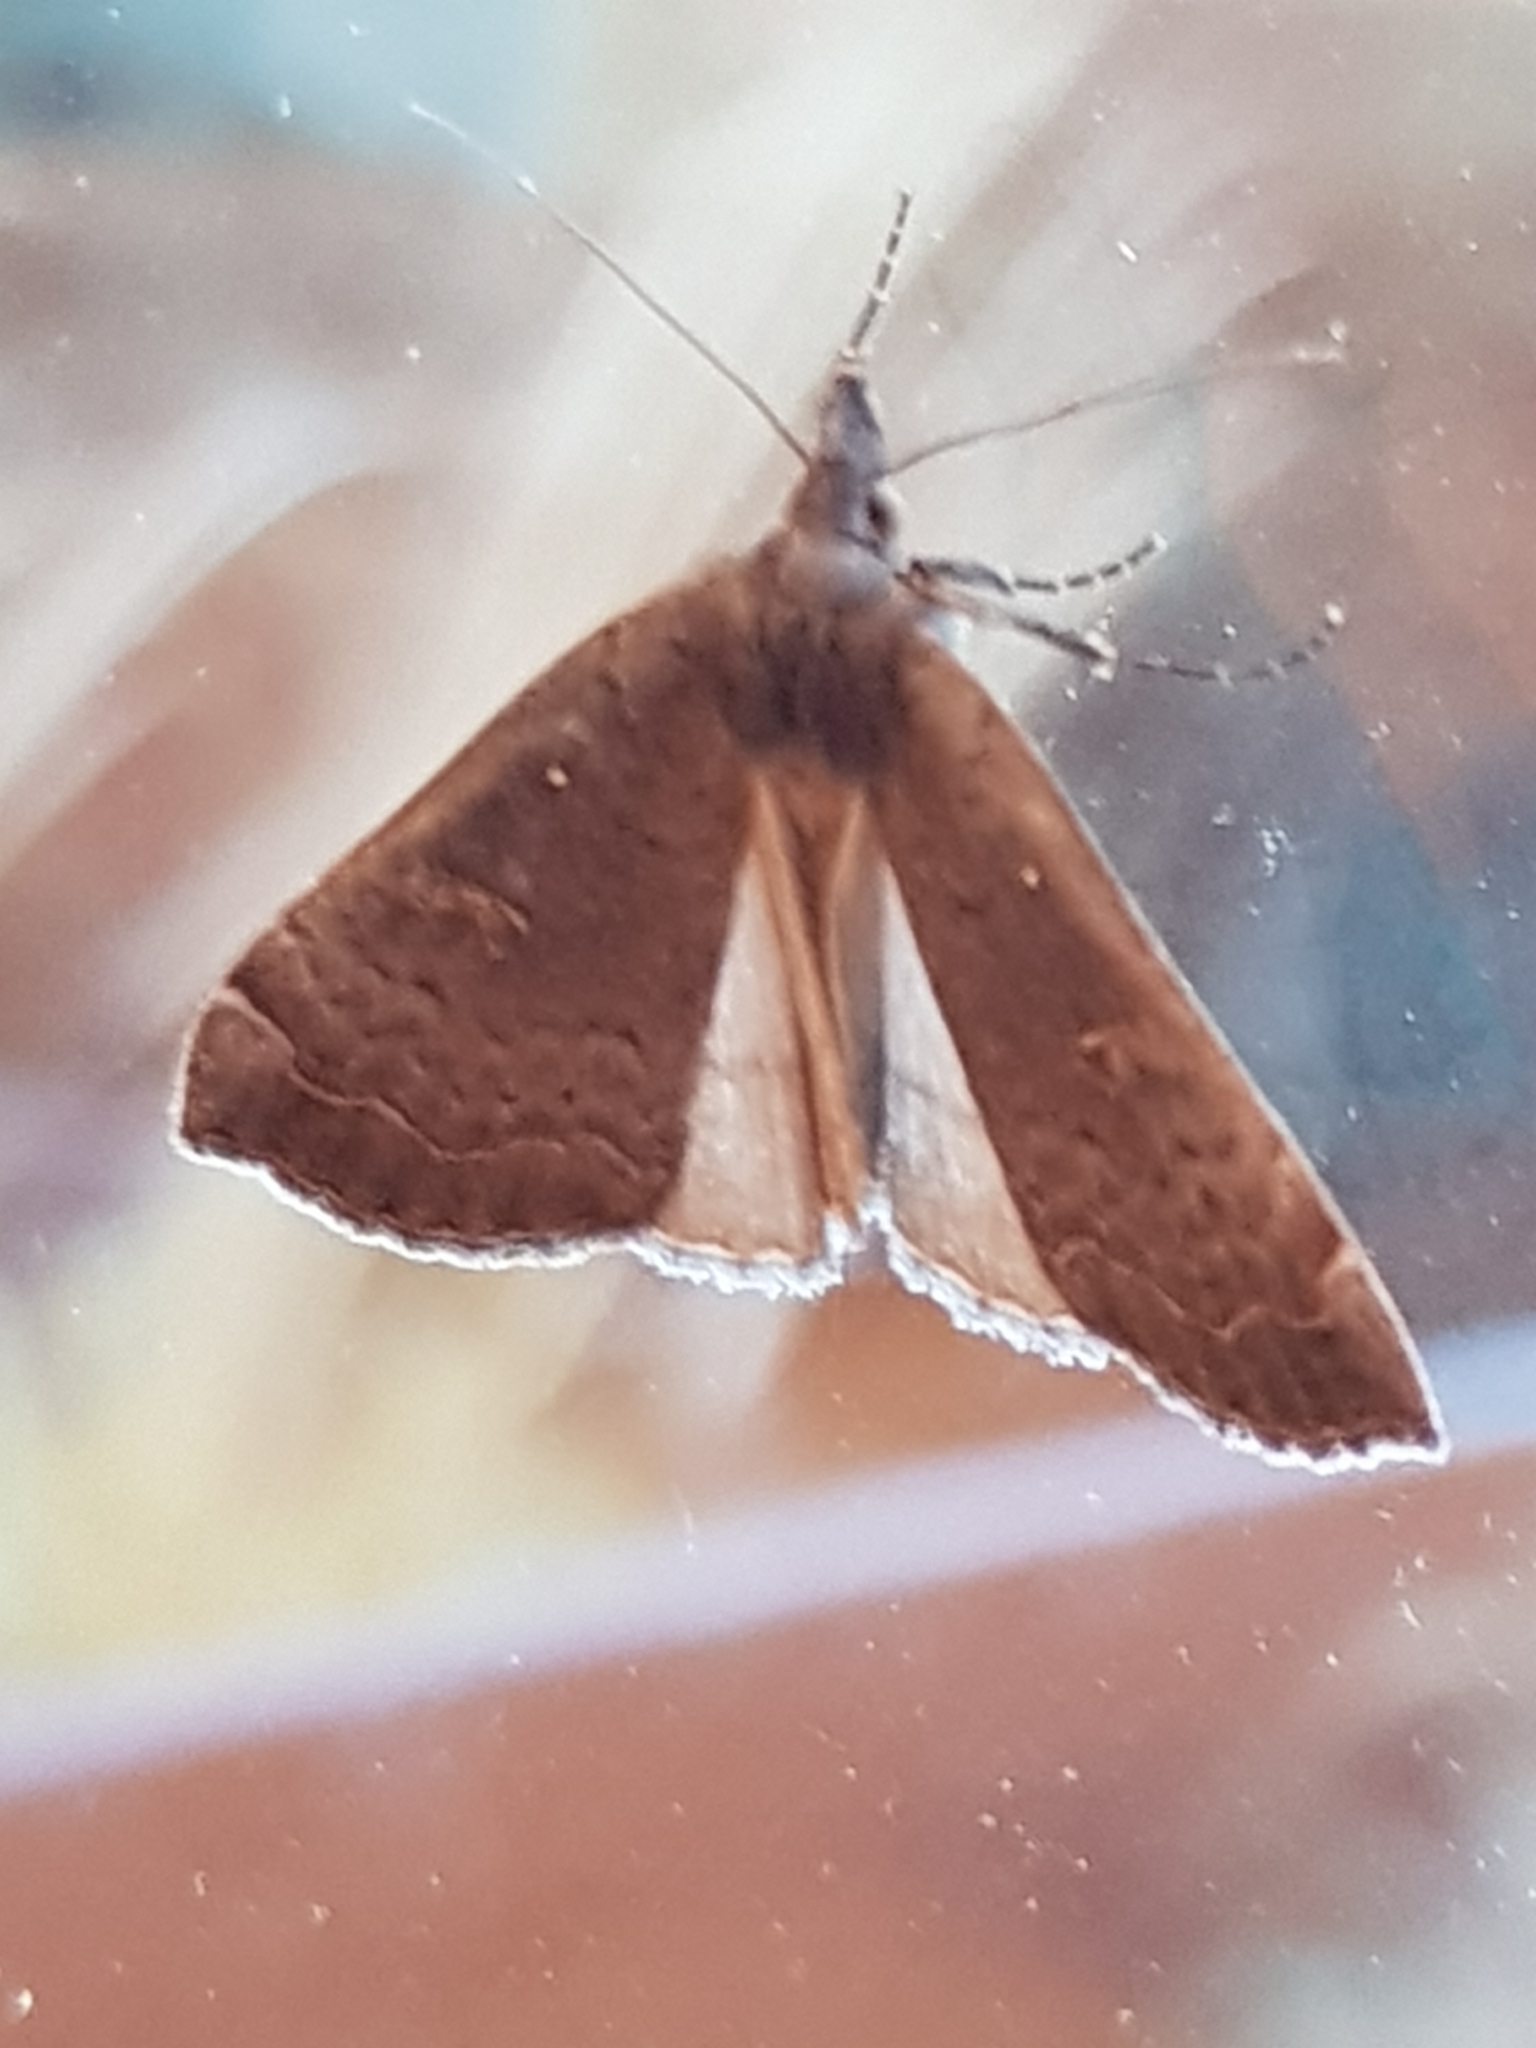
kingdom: Animalia
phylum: Arthropoda
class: Insecta
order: Lepidoptera
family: Erebidae
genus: Rhapsa
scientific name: Rhapsa scotosialis
